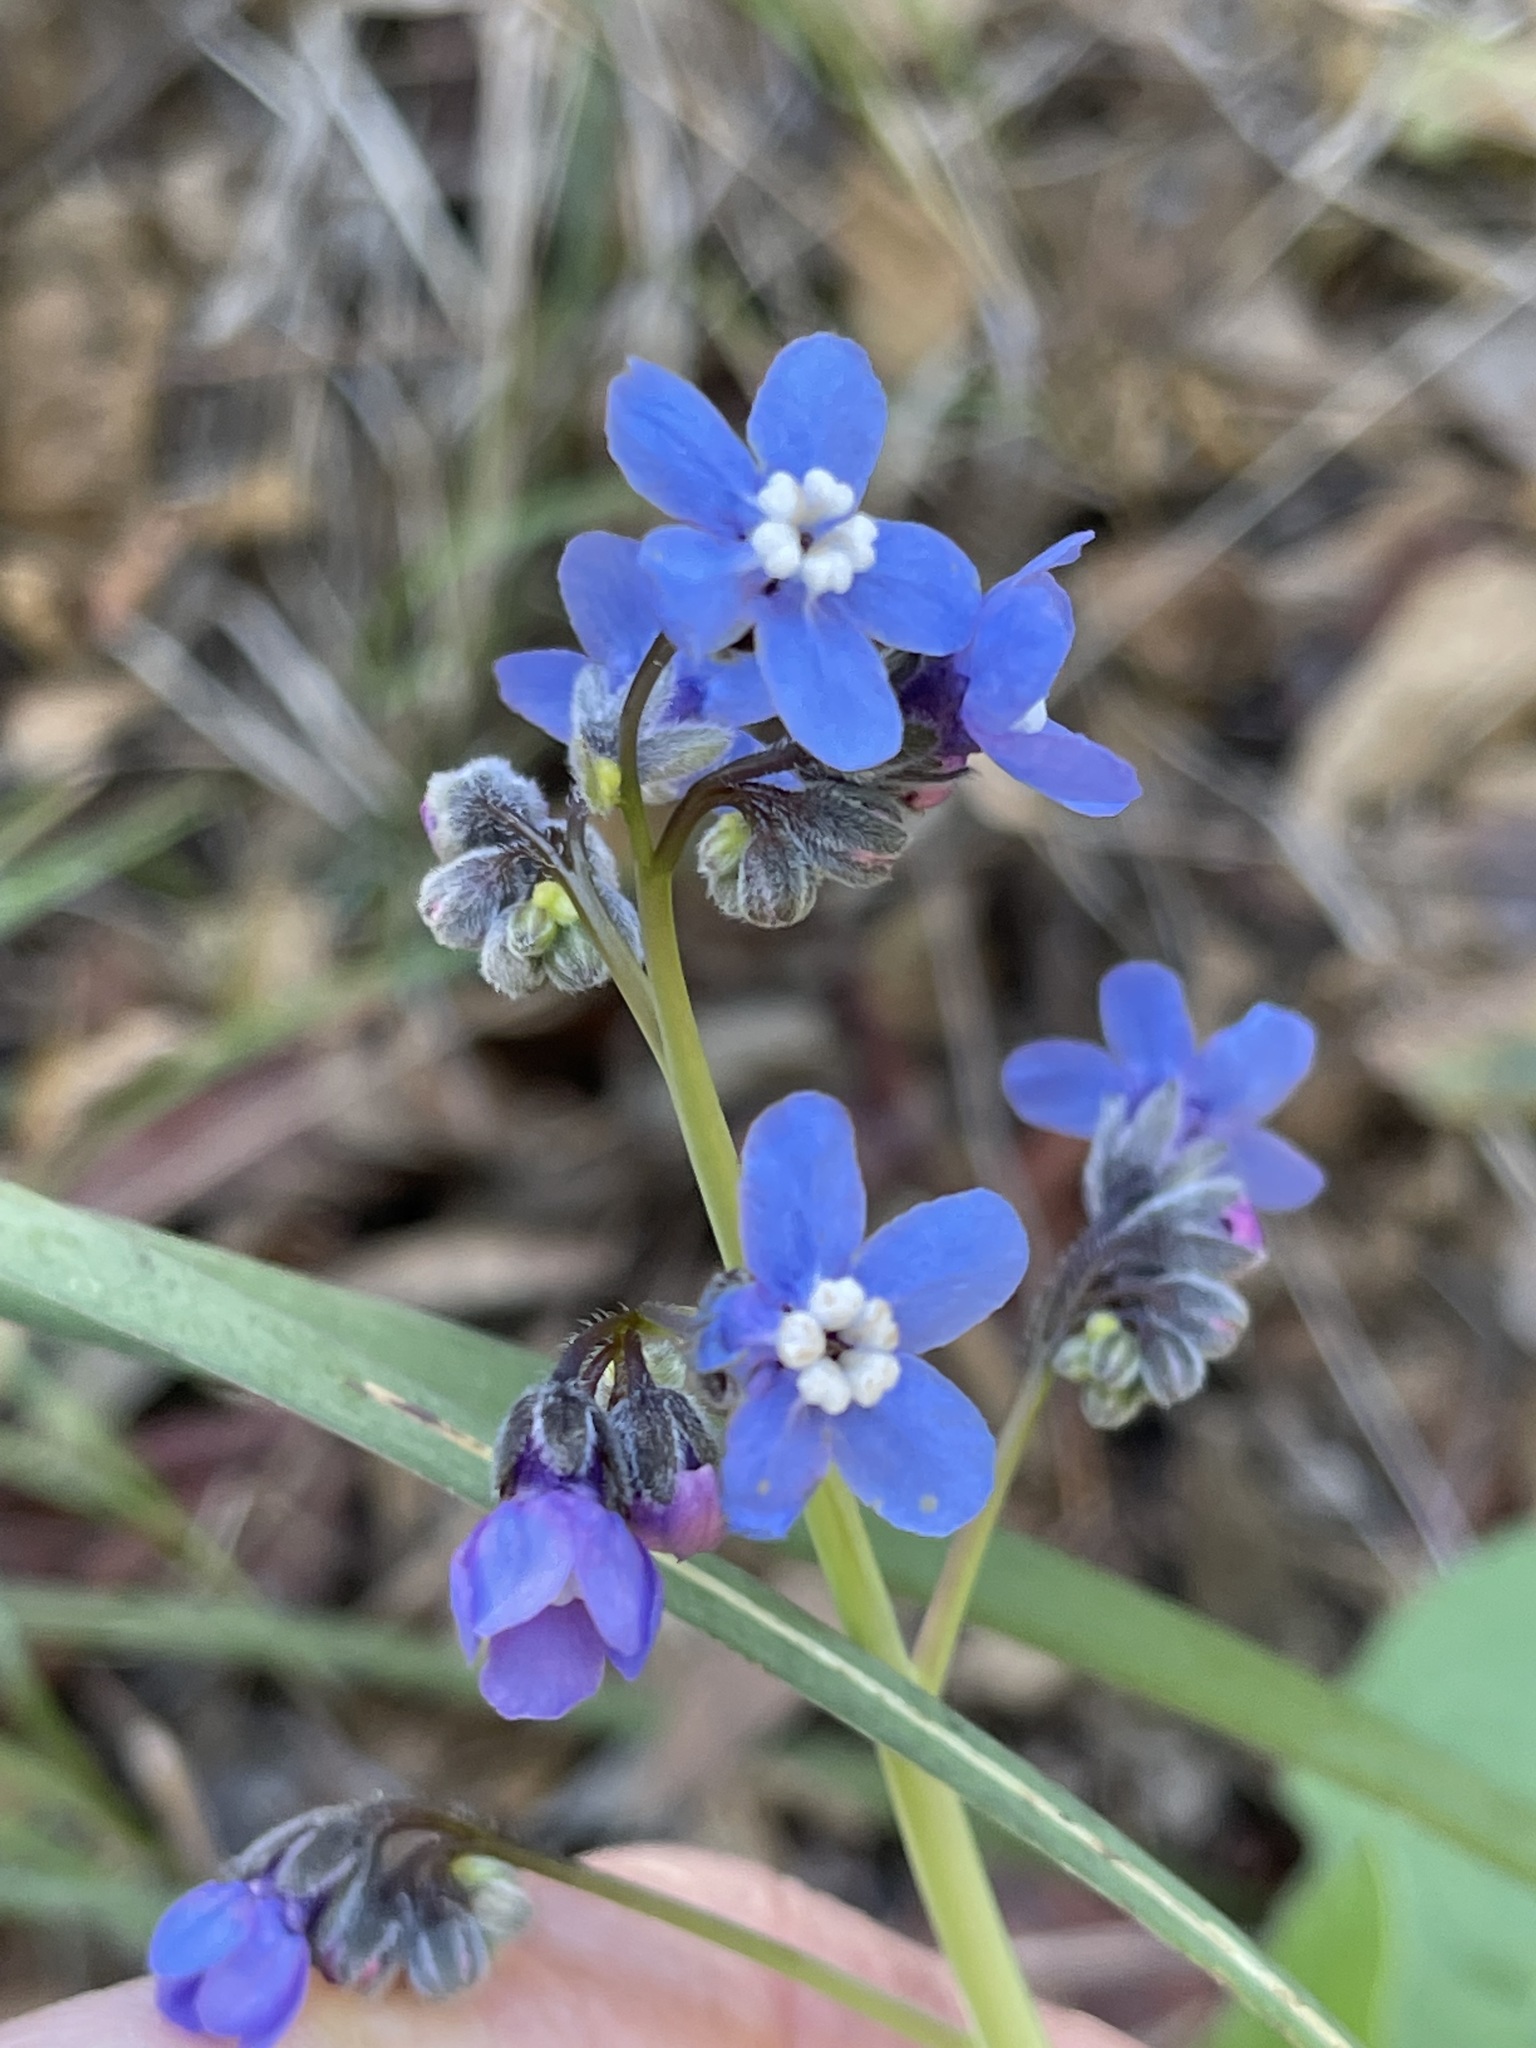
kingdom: Plantae
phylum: Tracheophyta
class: Magnoliopsida
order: Boraginales
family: Boraginaceae
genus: Adelinia
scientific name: Adelinia grande
